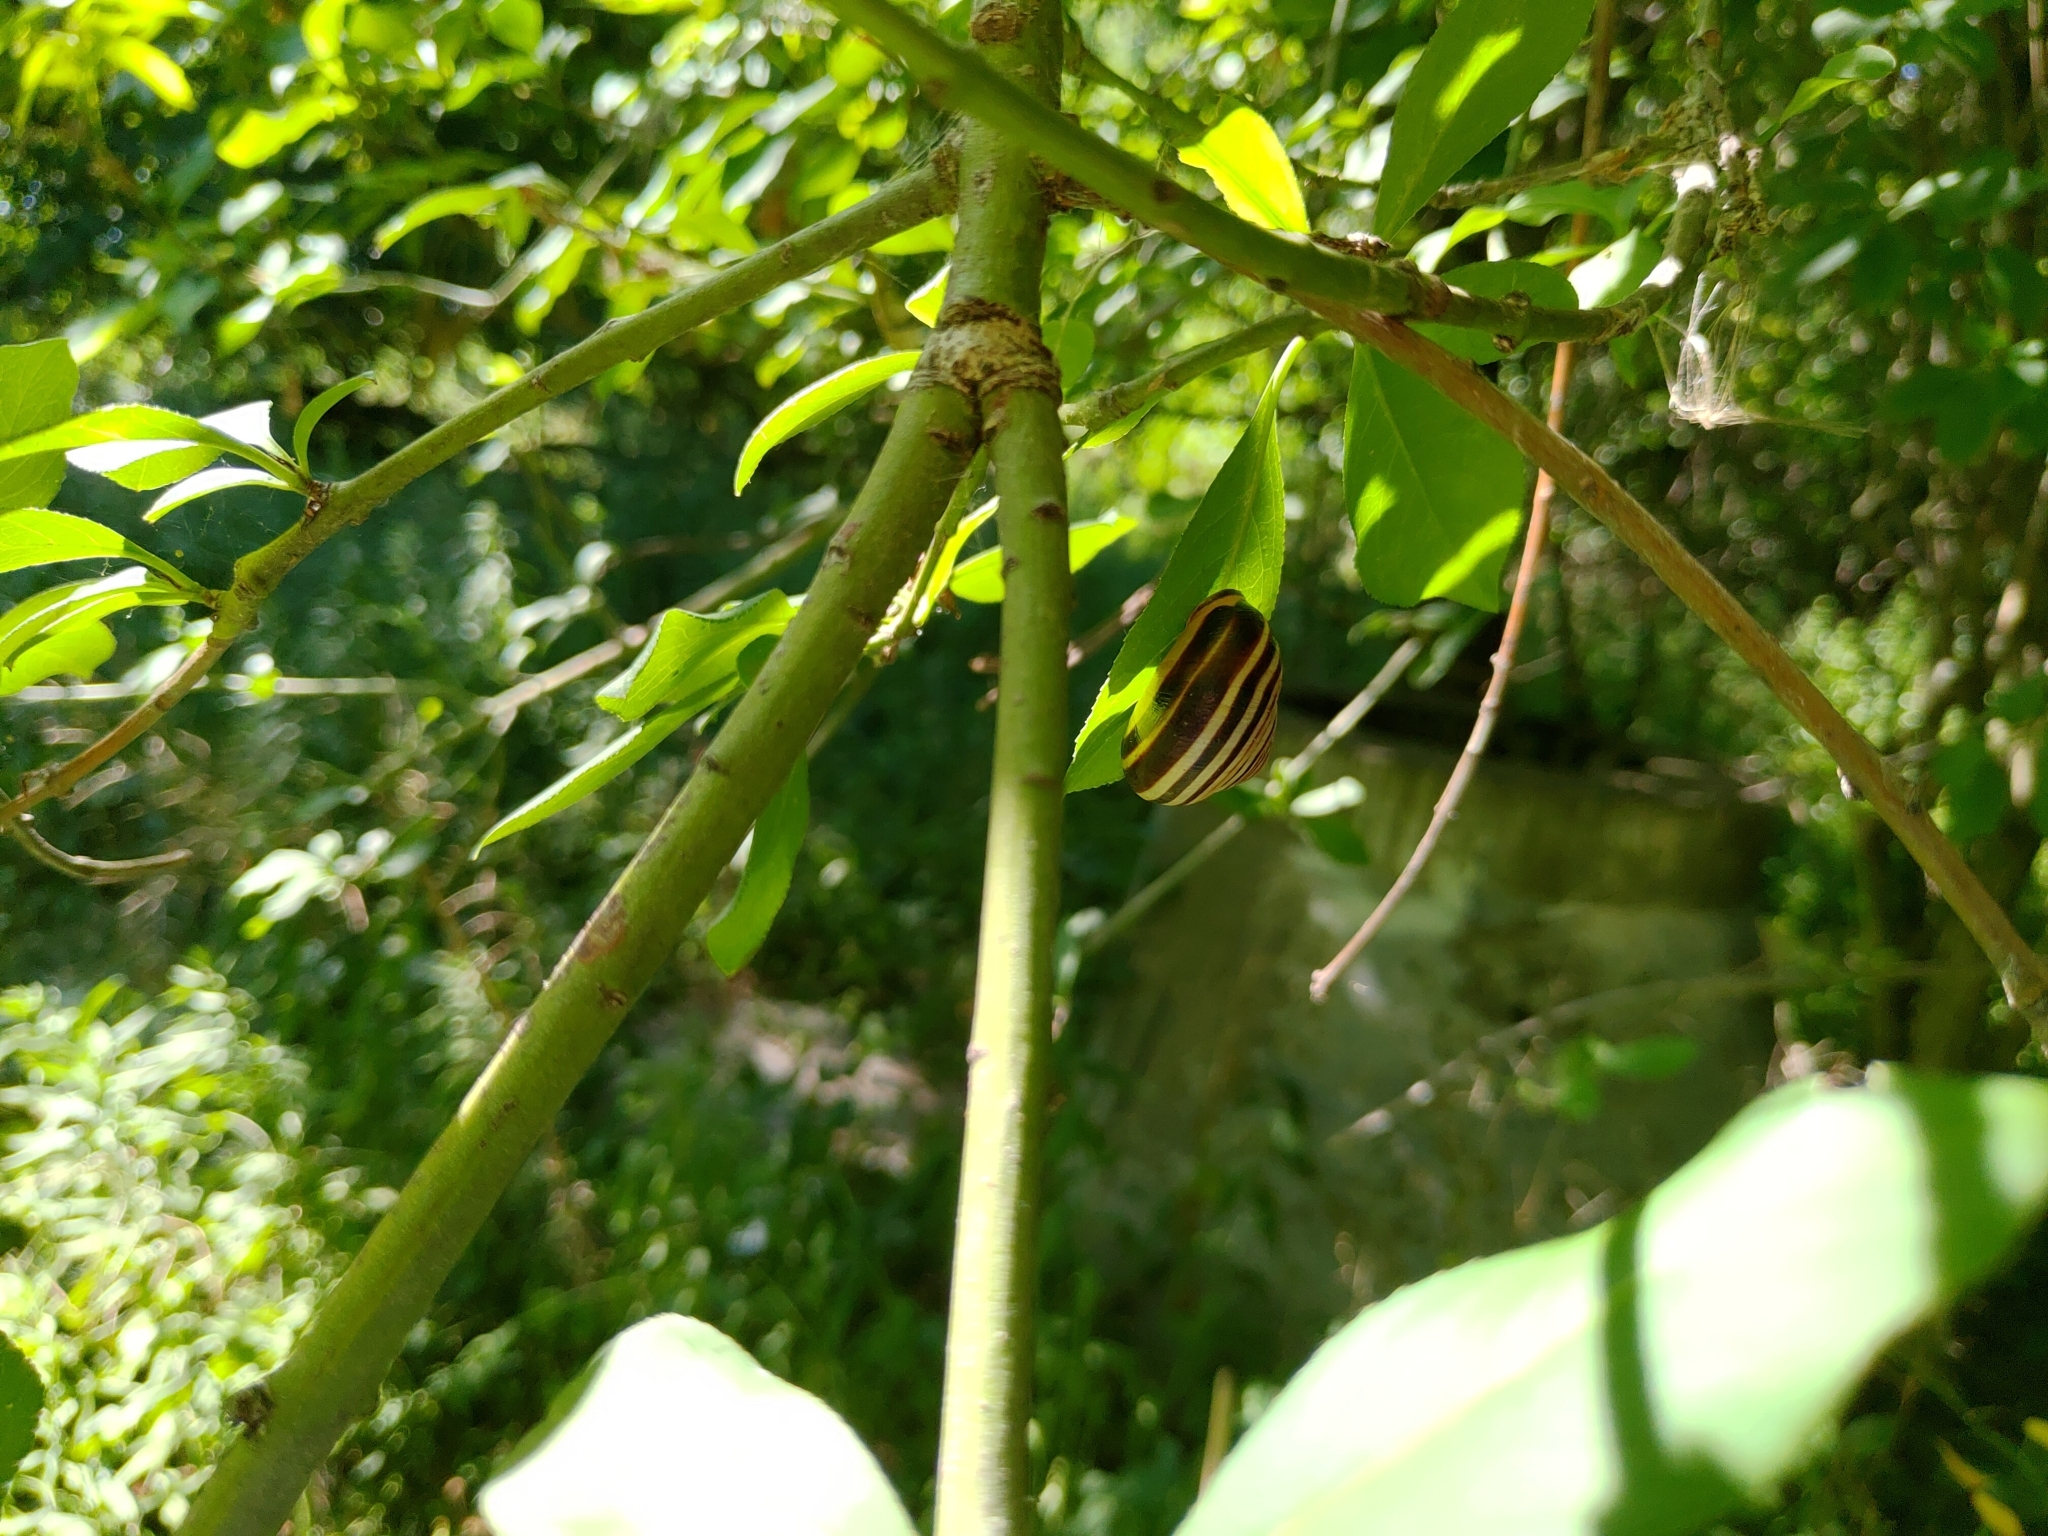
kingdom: Animalia
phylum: Mollusca
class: Gastropoda
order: Stylommatophora
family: Helicidae
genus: Cepaea
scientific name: Cepaea nemoralis
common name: Grovesnail
